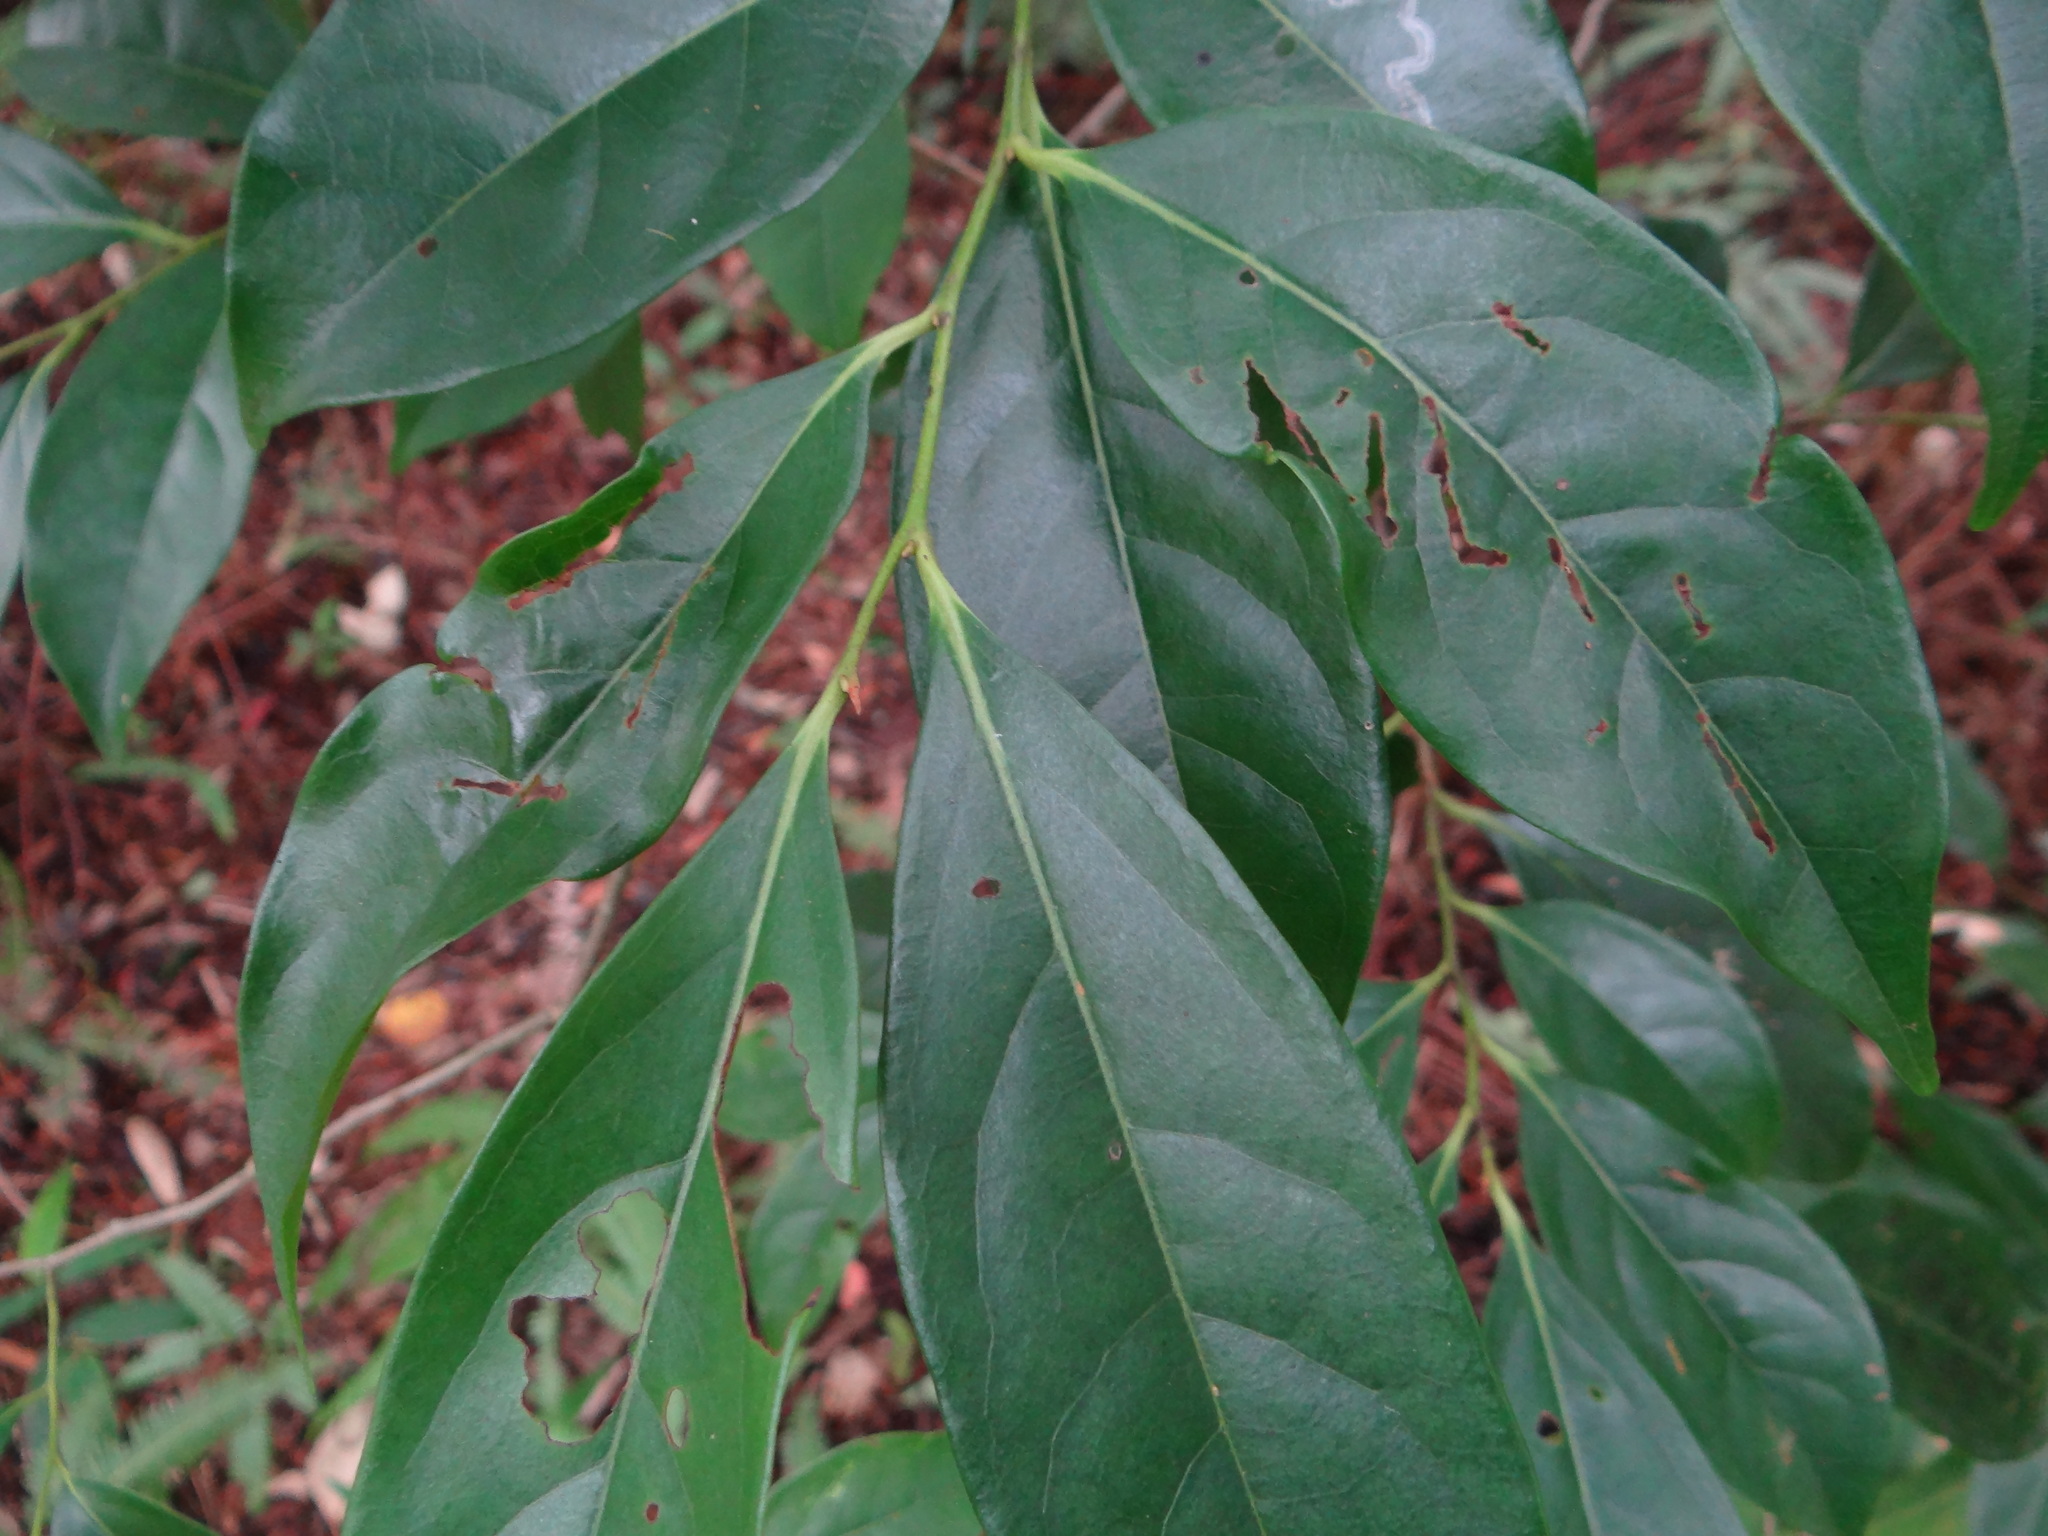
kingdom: Plantae
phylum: Tracheophyta
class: Magnoliopsida
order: Ericales
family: Ebenaceae
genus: Diospyros
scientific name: Diospyros morrisiana
